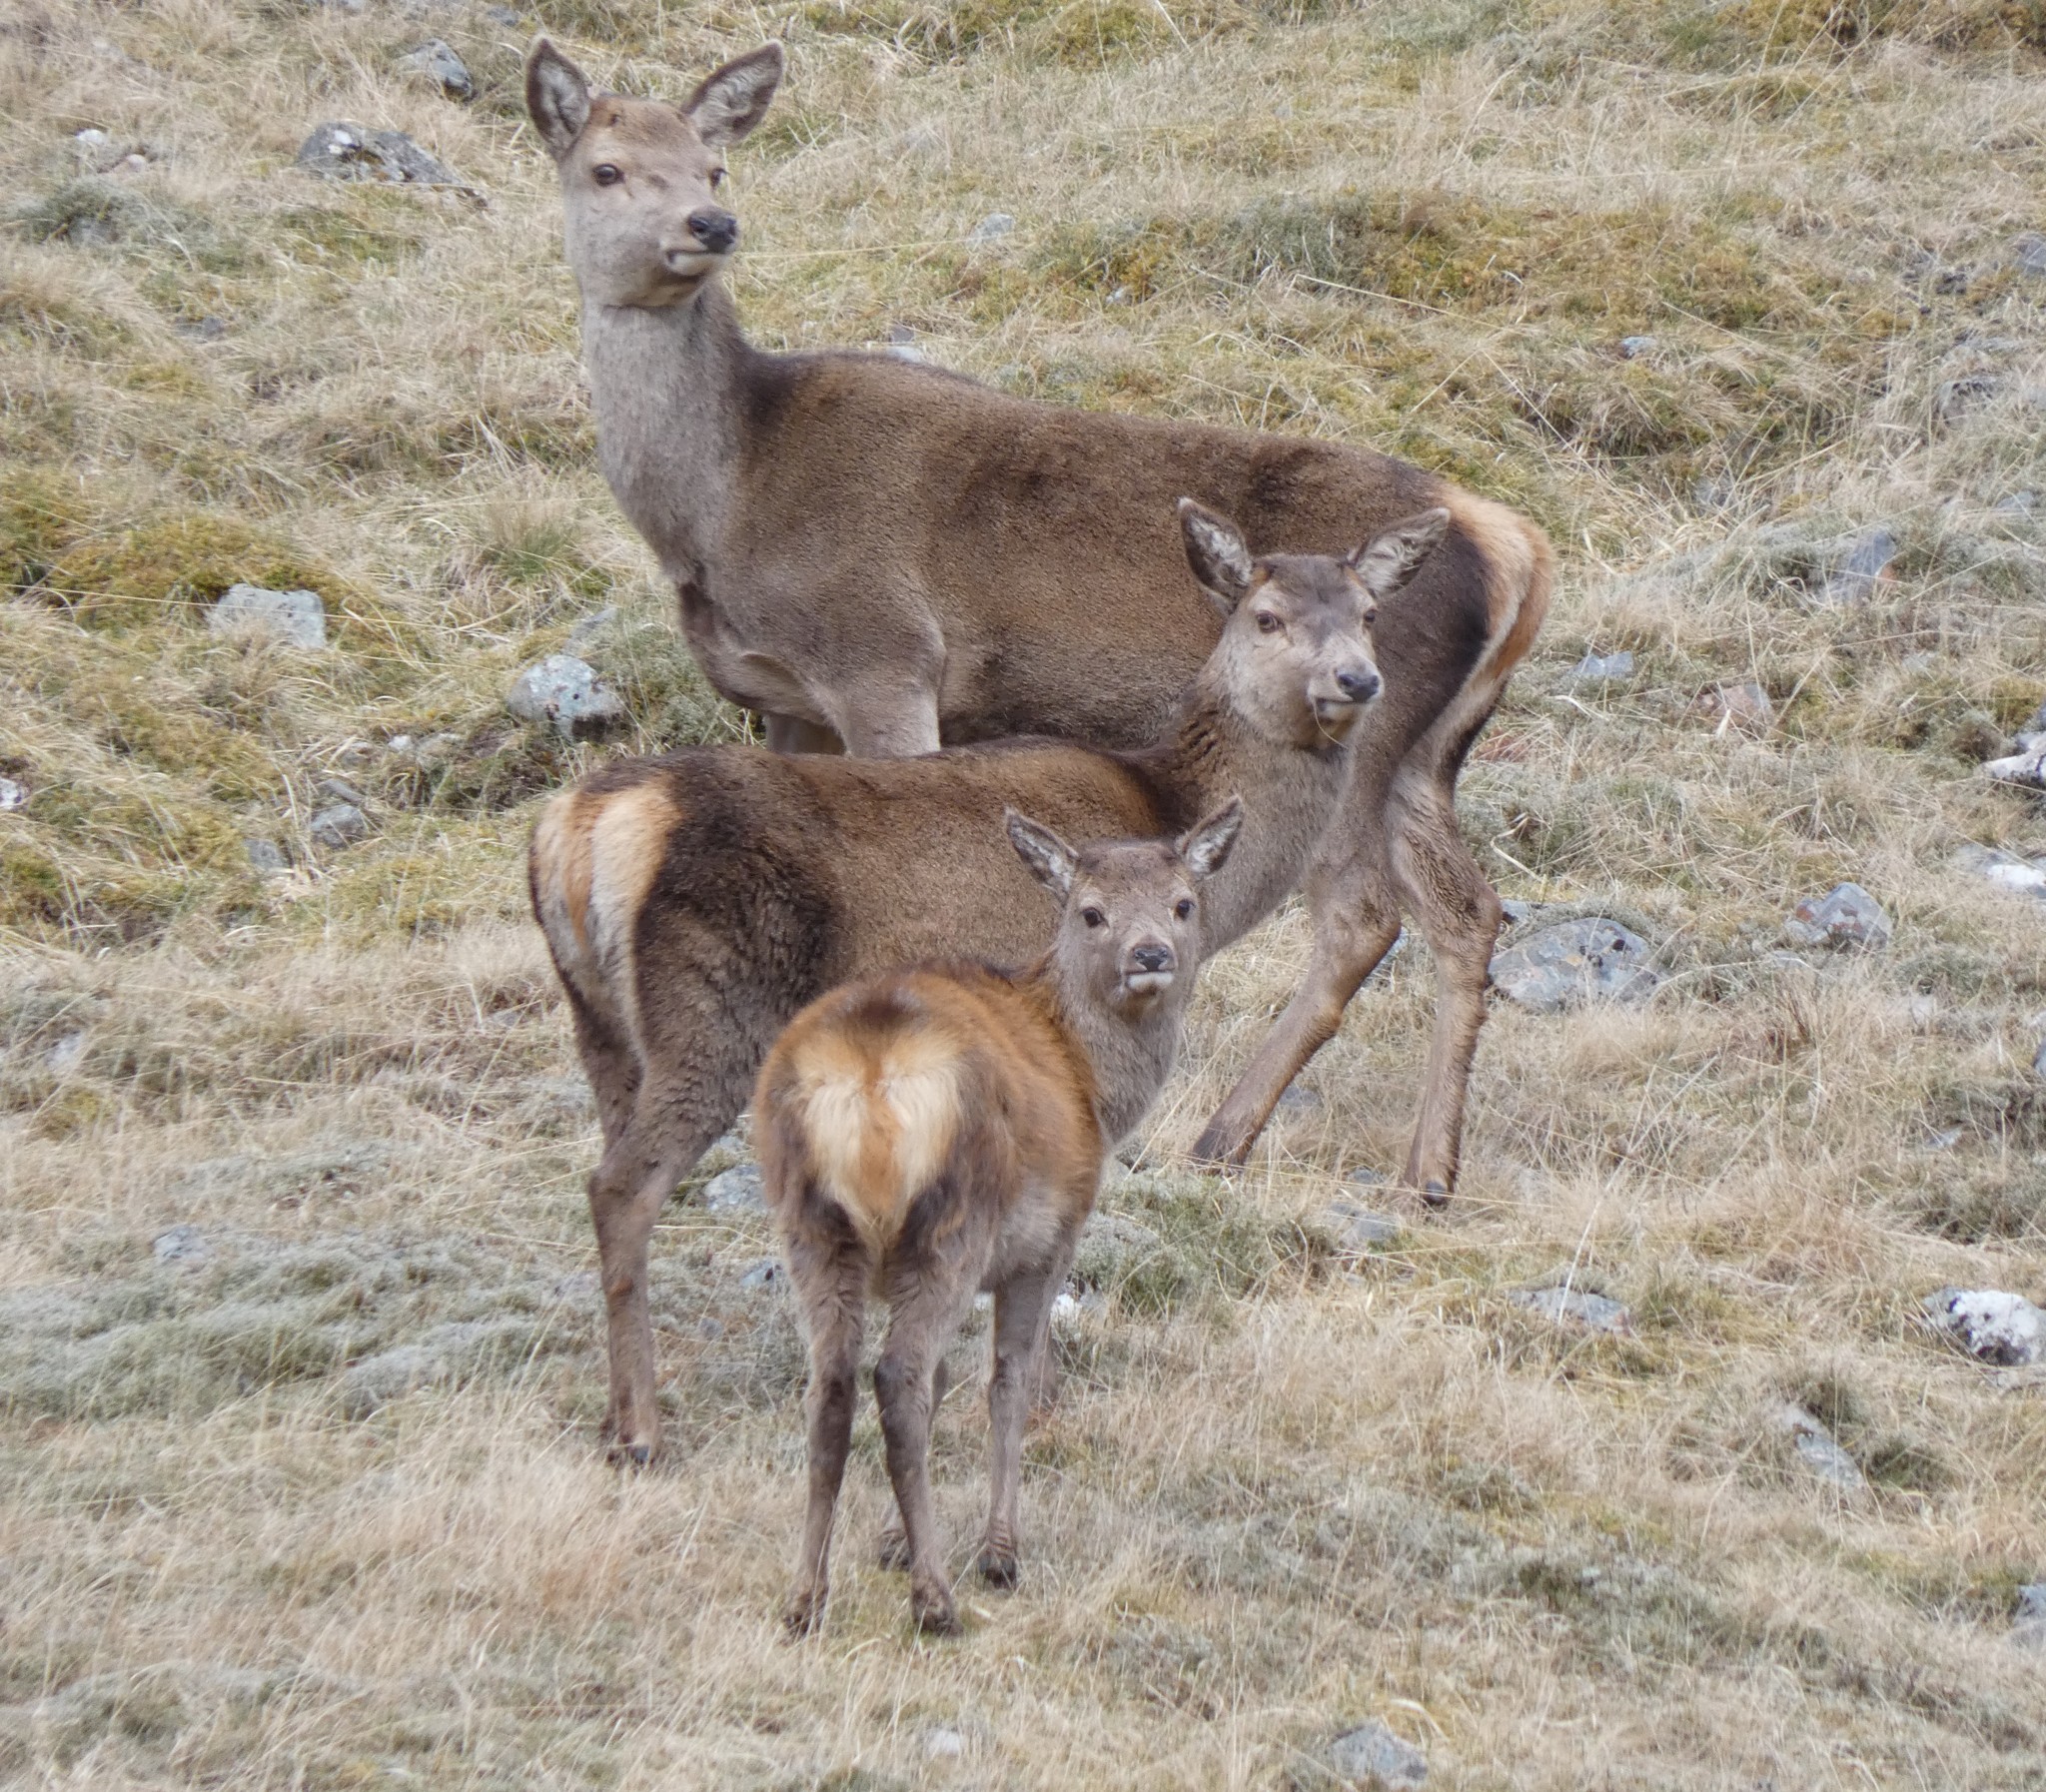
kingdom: Animalia
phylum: Chordata
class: Mammalia
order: Artiodactyla
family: Cervidae
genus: Cervus
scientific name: Cervus elaphus
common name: Red deer
